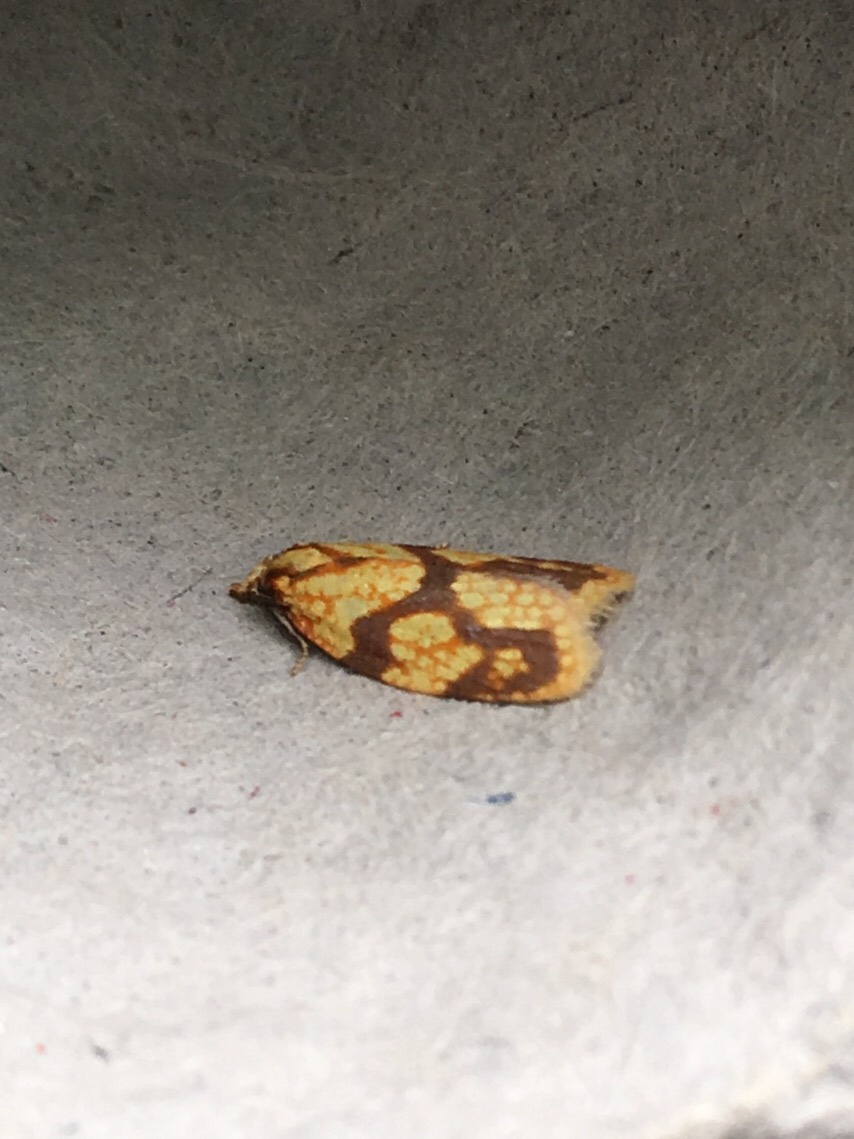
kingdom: Animalia
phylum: Arthropoda
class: Insecta
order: Lepidoptera
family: Tortricidae
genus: Sparganothis
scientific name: Sparganothis sulfureana
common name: Sparganothis fruitworm moth
